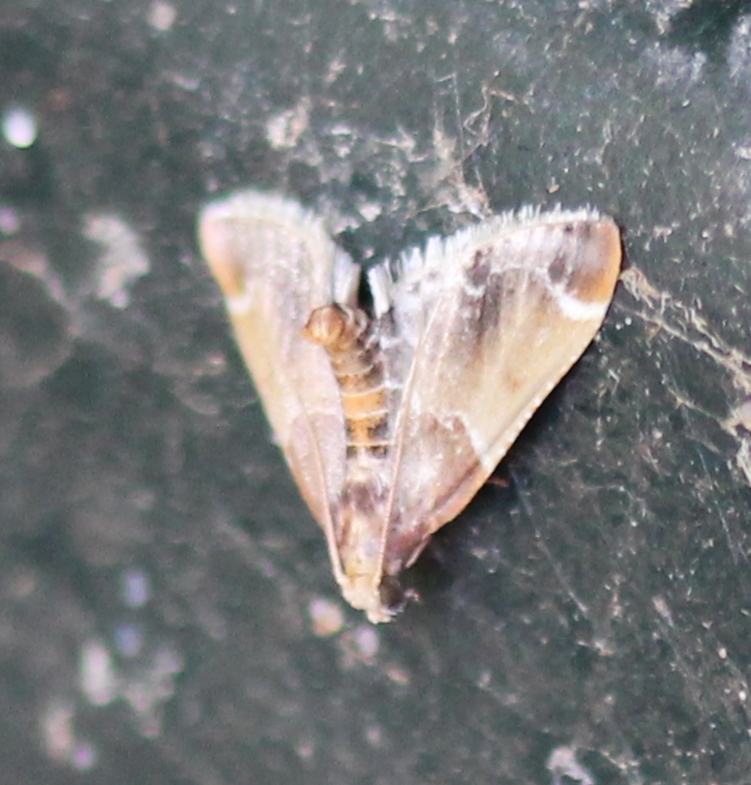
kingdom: Animalia
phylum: Arthropoda
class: Insecta
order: Lepidoptera
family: Pyralidae
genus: Pyralis
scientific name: Pyralis farinalis
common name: Meal moth
